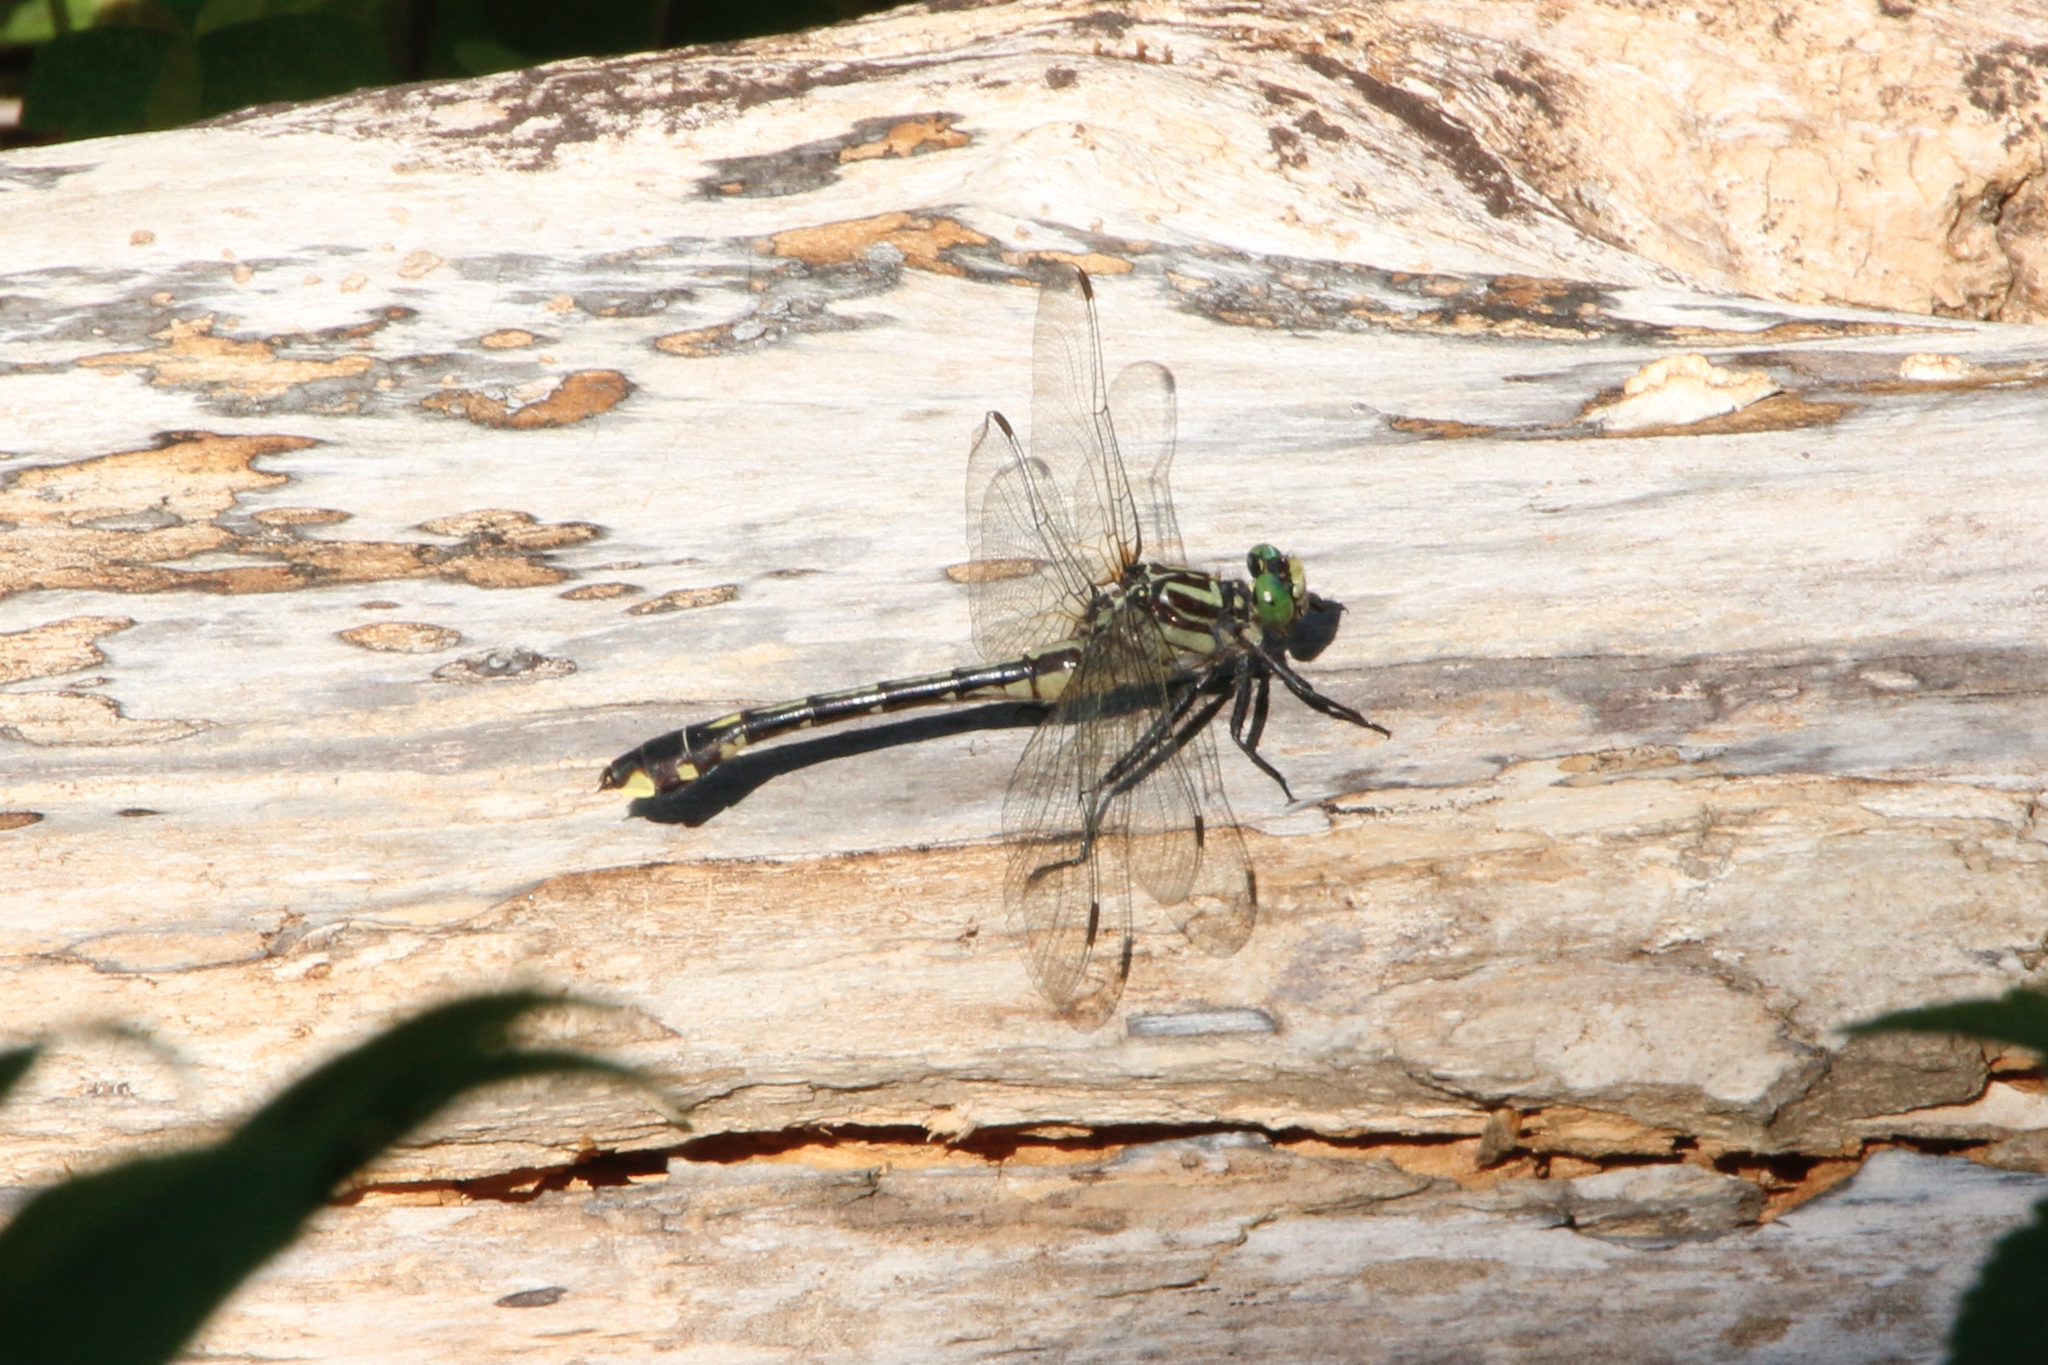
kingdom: Animalia
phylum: Arthropoda
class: Insecta
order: Odonata
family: Gomphidae
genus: Gomphurus
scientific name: Gomphurus vastus
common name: Cobra clubtail
